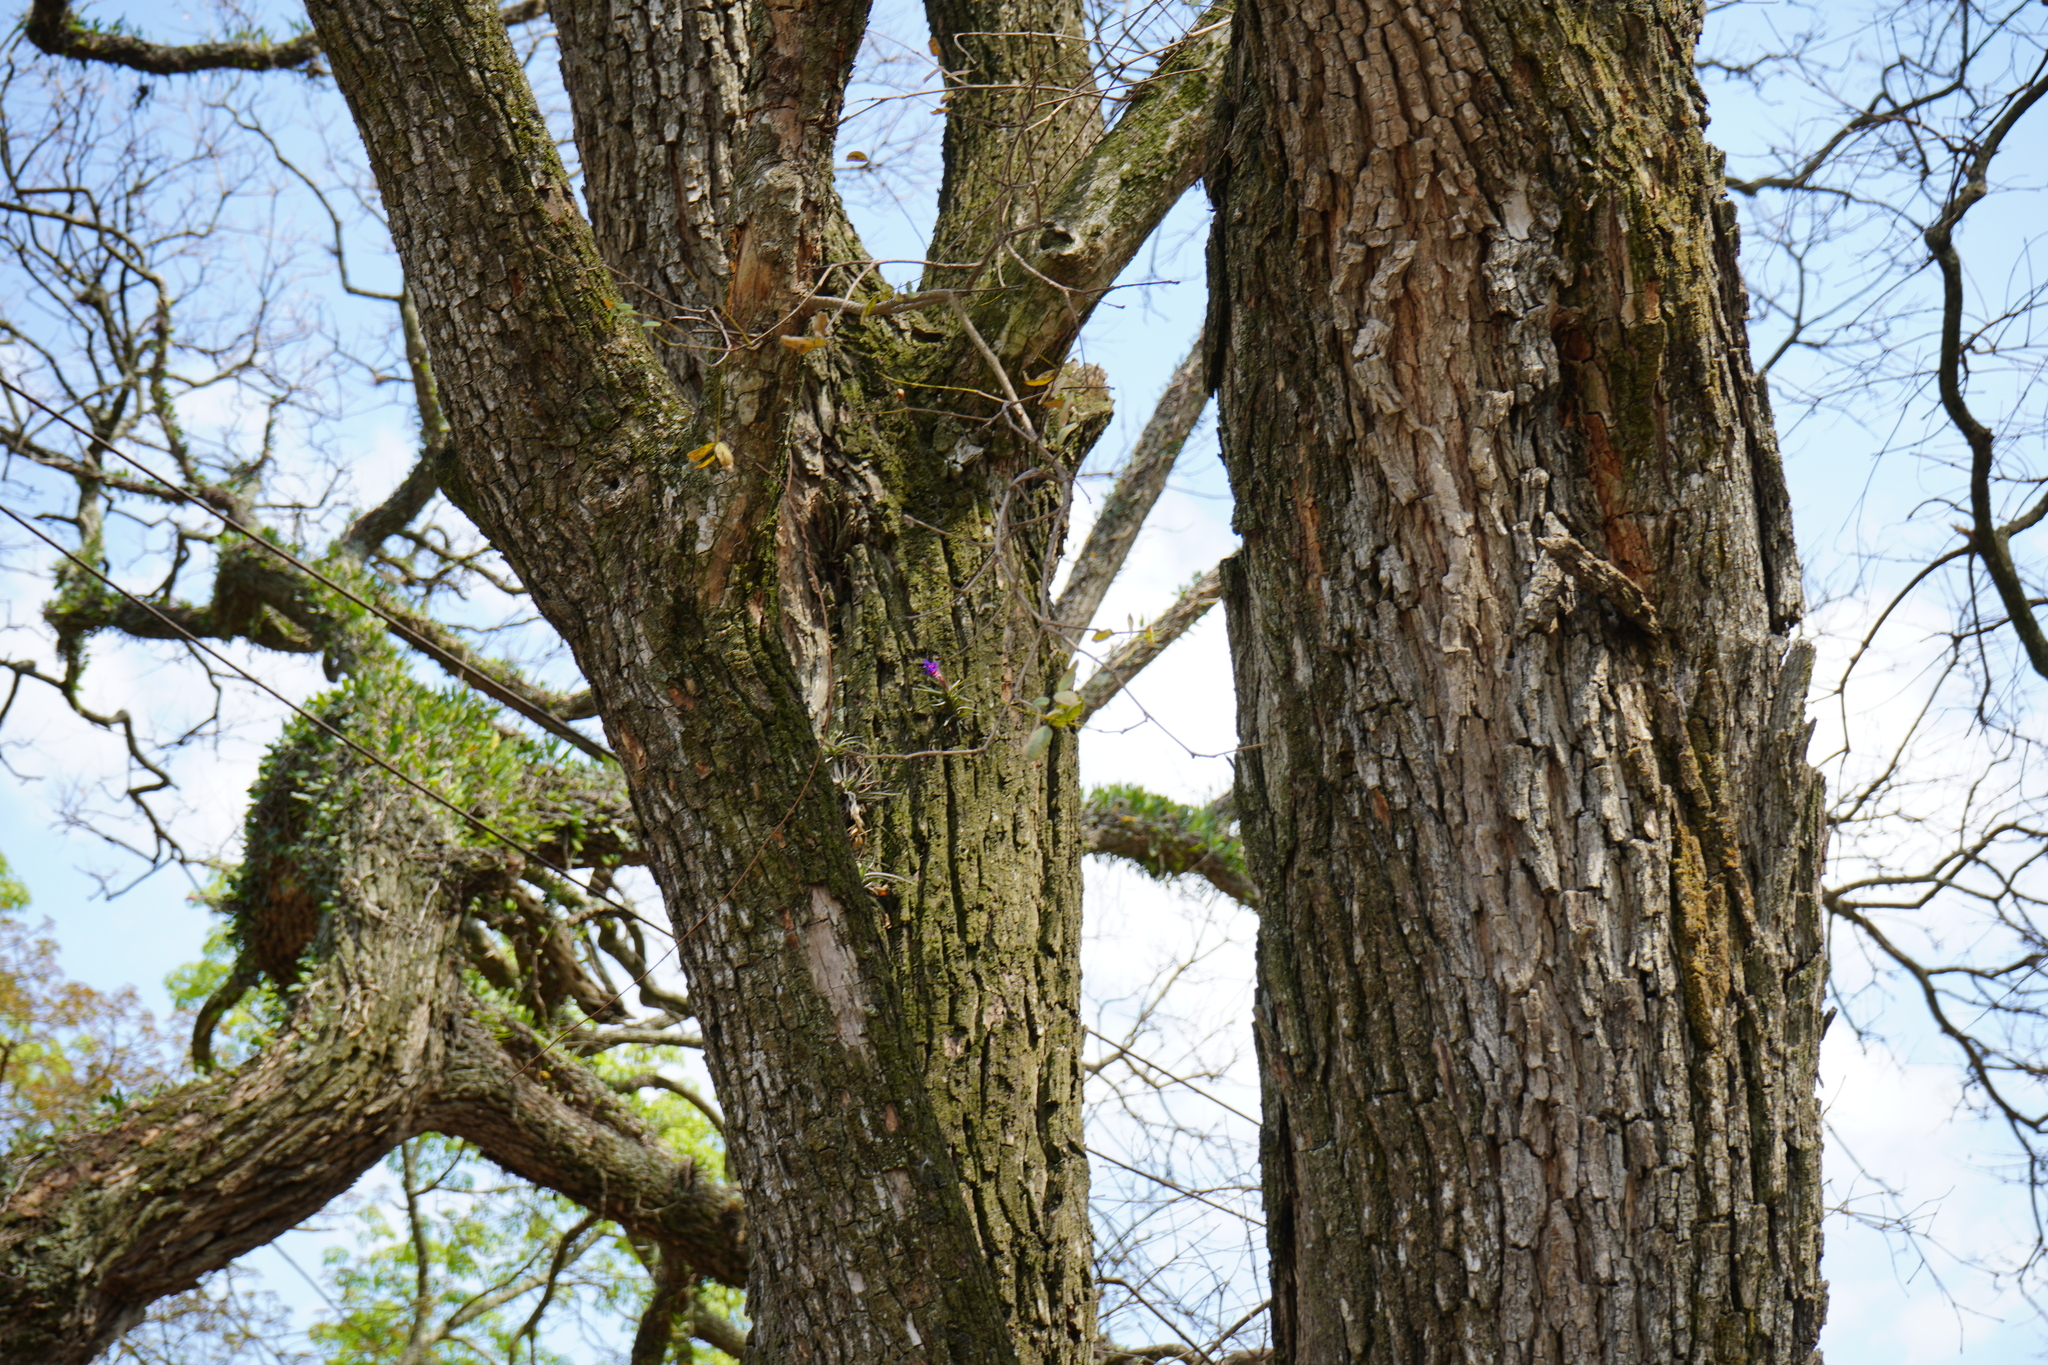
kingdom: Plantae
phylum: Tracheophyta
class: Liliopsida
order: Poales
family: Bromeliaceae
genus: Tillandsia
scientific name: Tillandsia aeranthos
